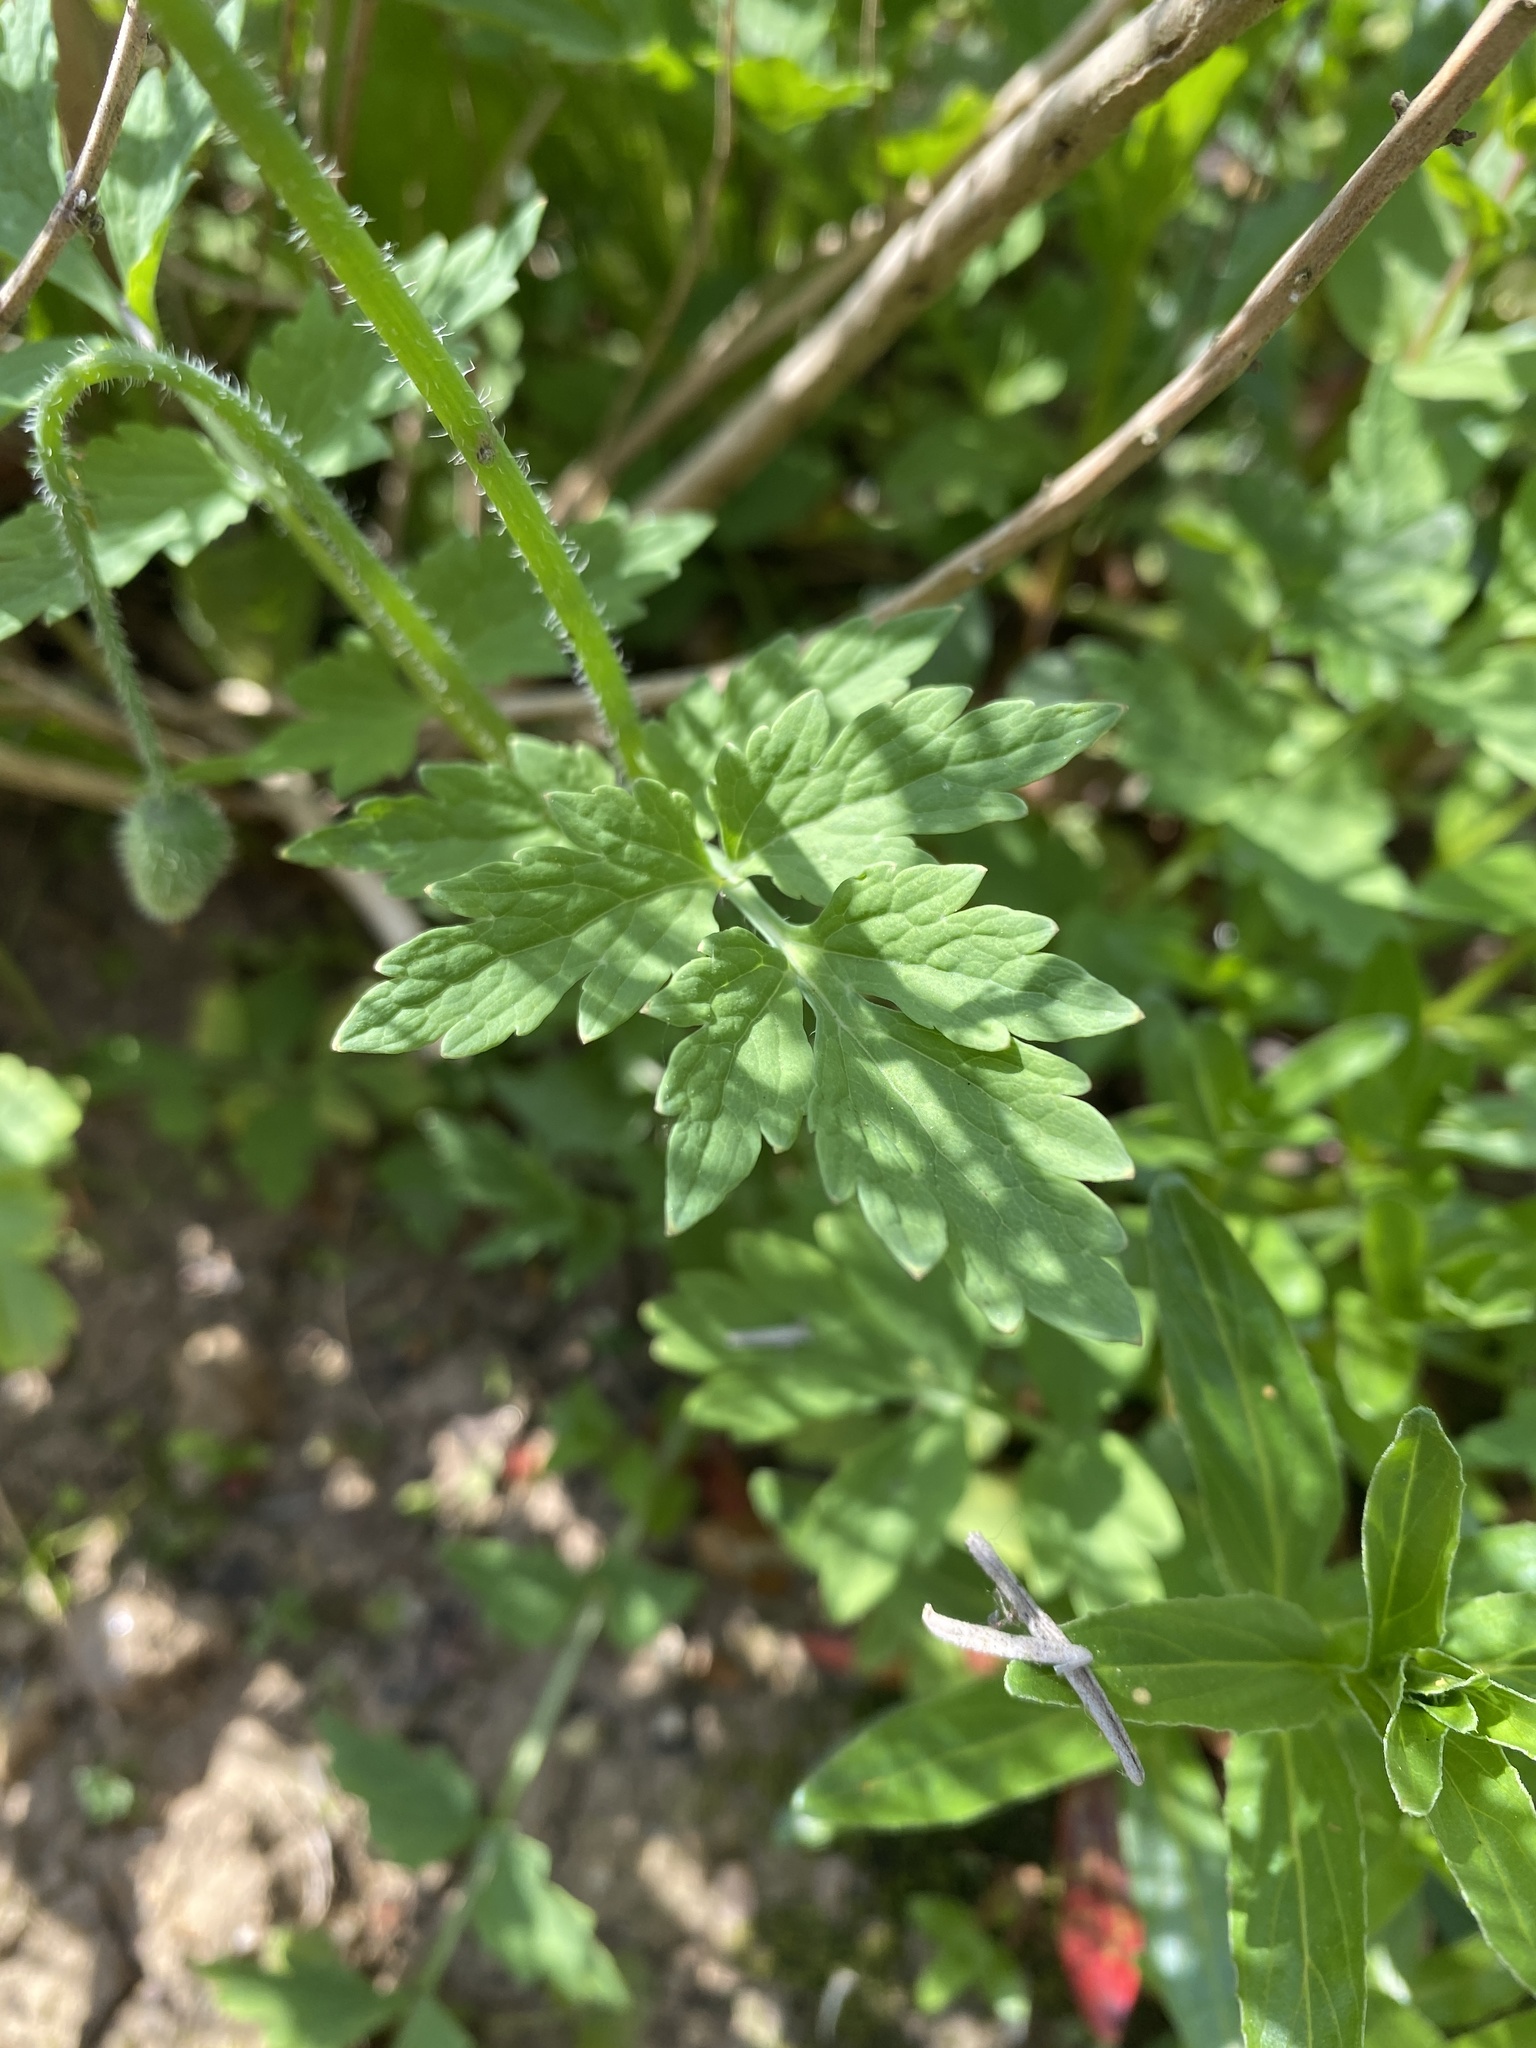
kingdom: Plantae
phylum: Tracheophyta
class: Magnoliopsida
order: Ranunculales
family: Papaveraceae
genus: Papaver
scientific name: Papaver cambricum
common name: Poppy
